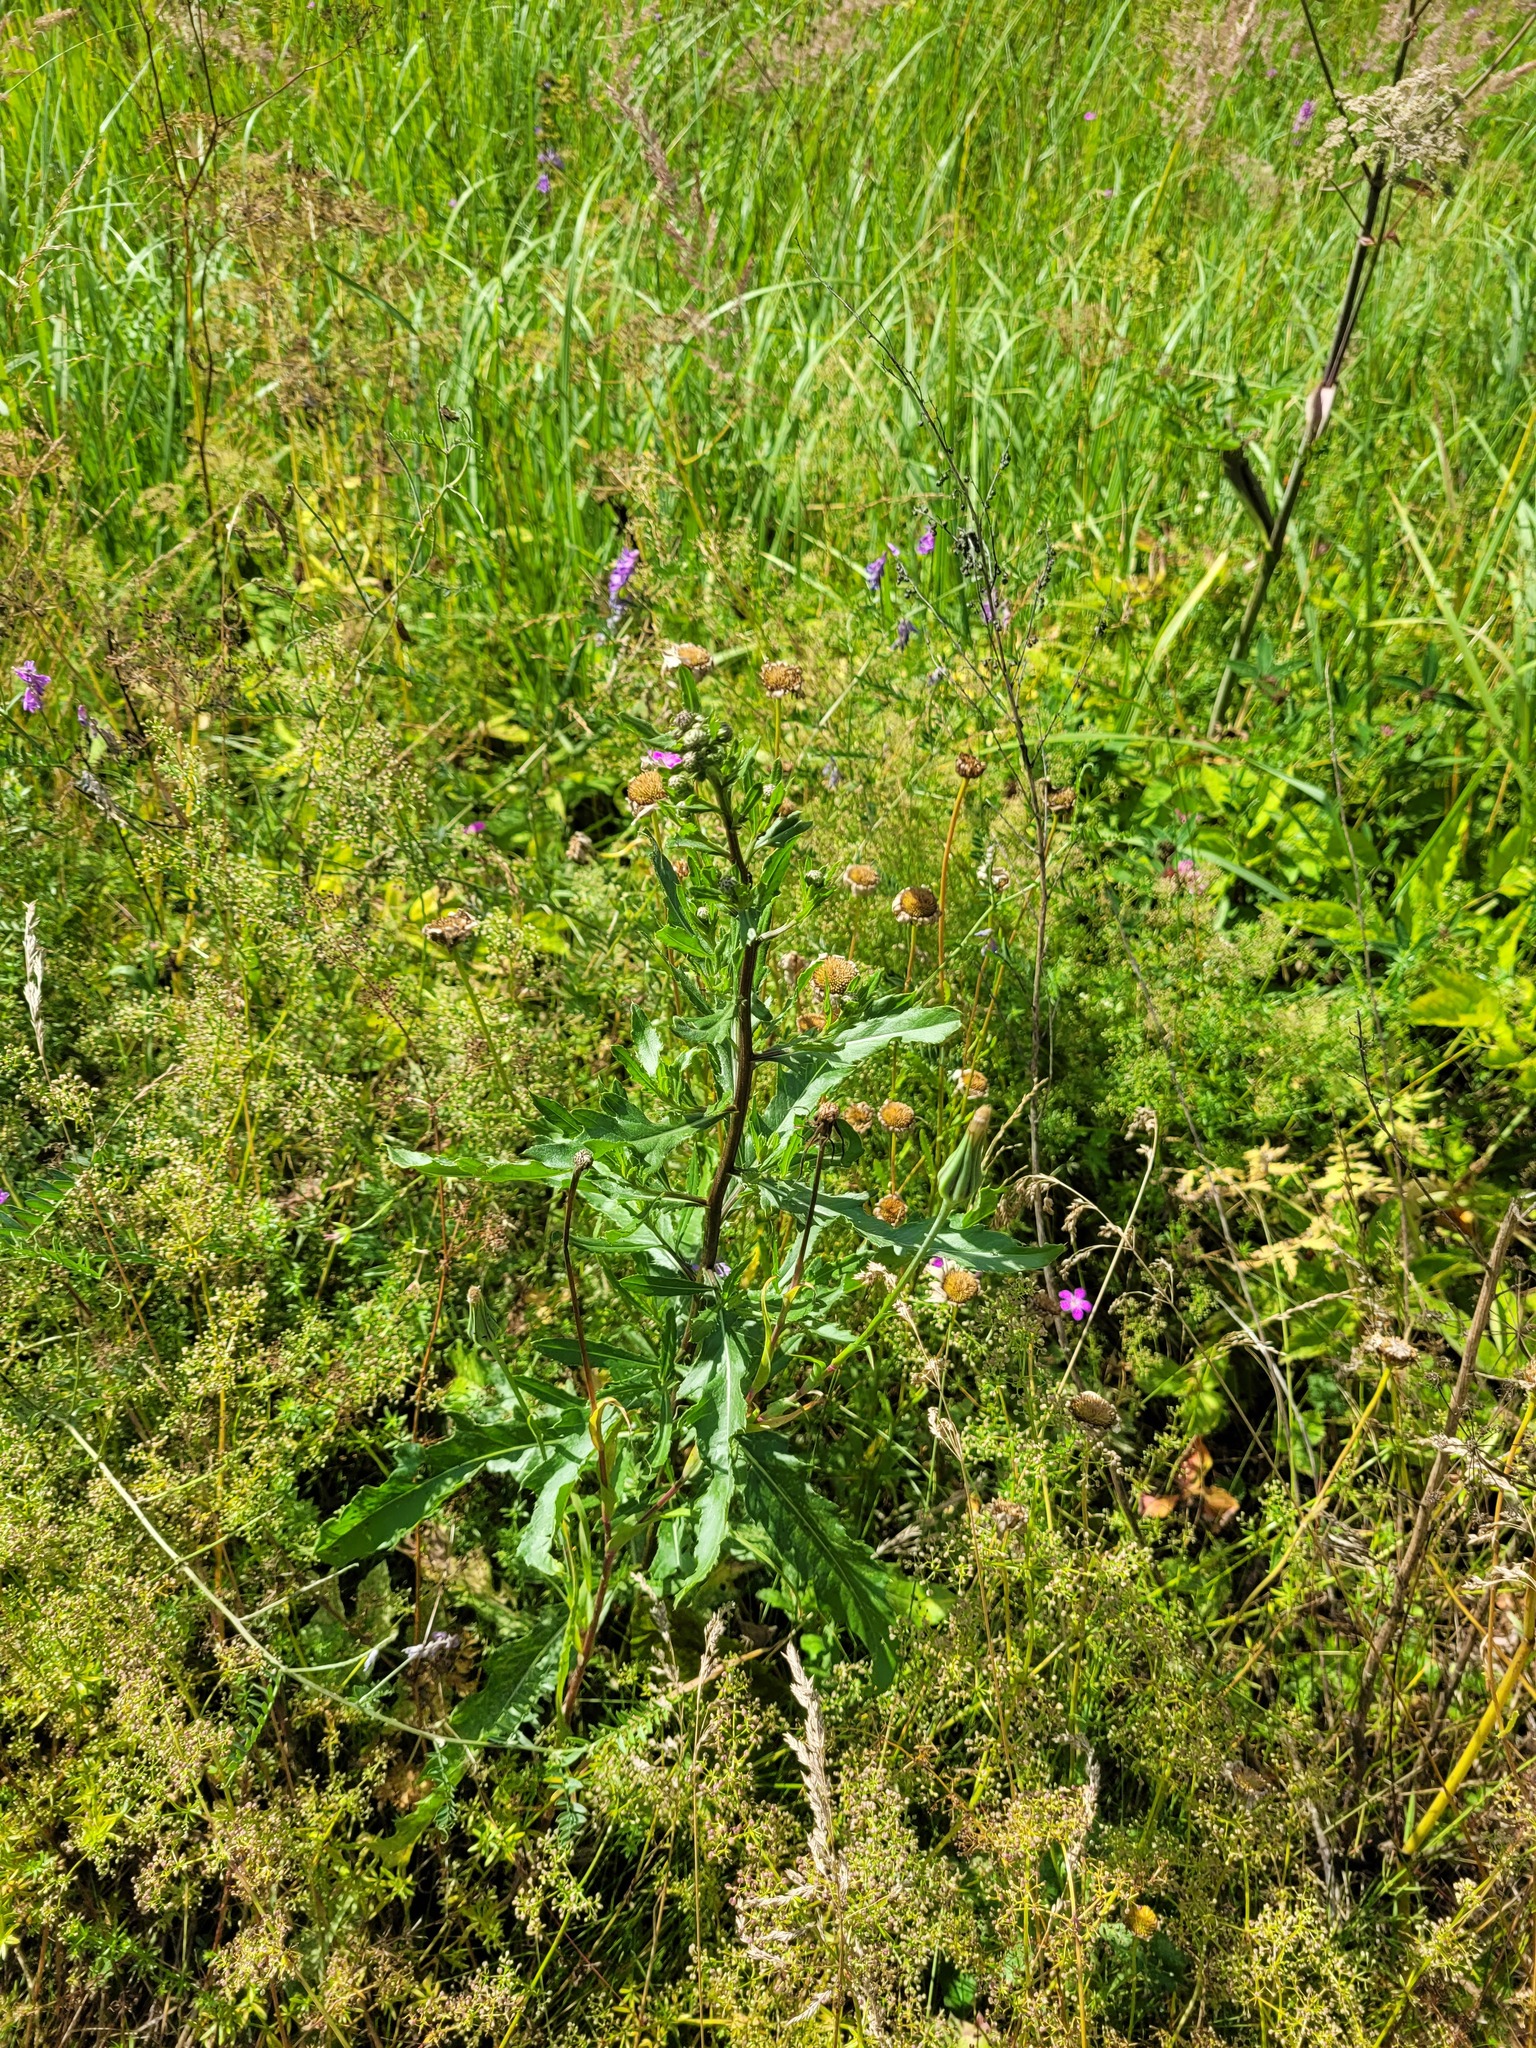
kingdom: Plantae
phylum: Tracheophyta
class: Magnoliopsida
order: Asterales
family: Asteraceae
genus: Cirsium
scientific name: Cirsium arvense
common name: Creeping thistle
